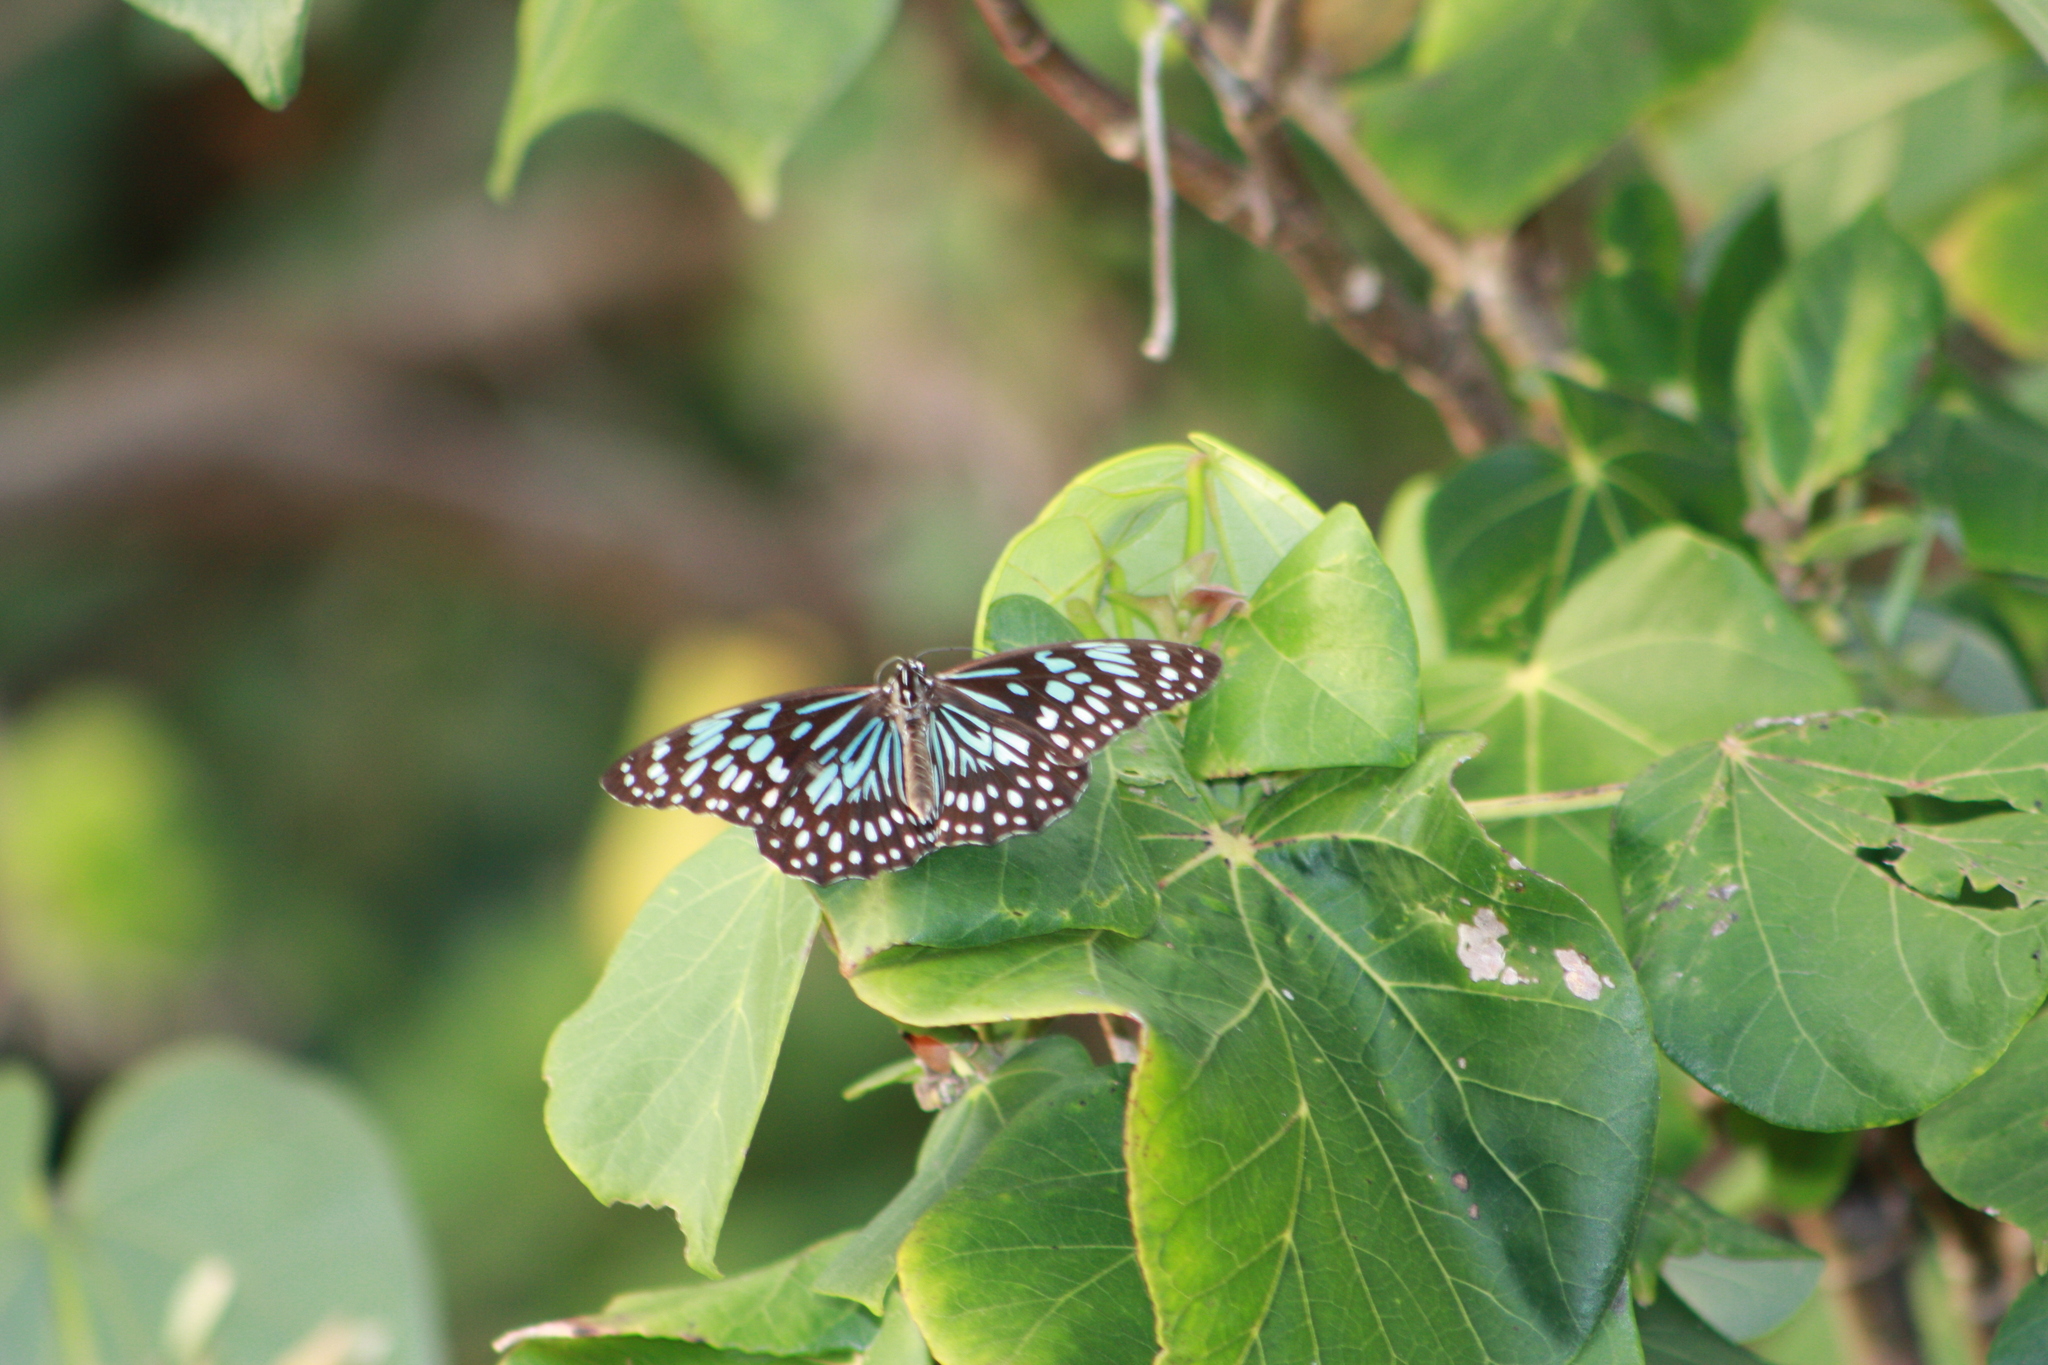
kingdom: Animalia
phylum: Arthropoda
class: Insecta
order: Lepidoptera
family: Nymphalidae
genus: Tirumala
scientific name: Tirumala hamata
